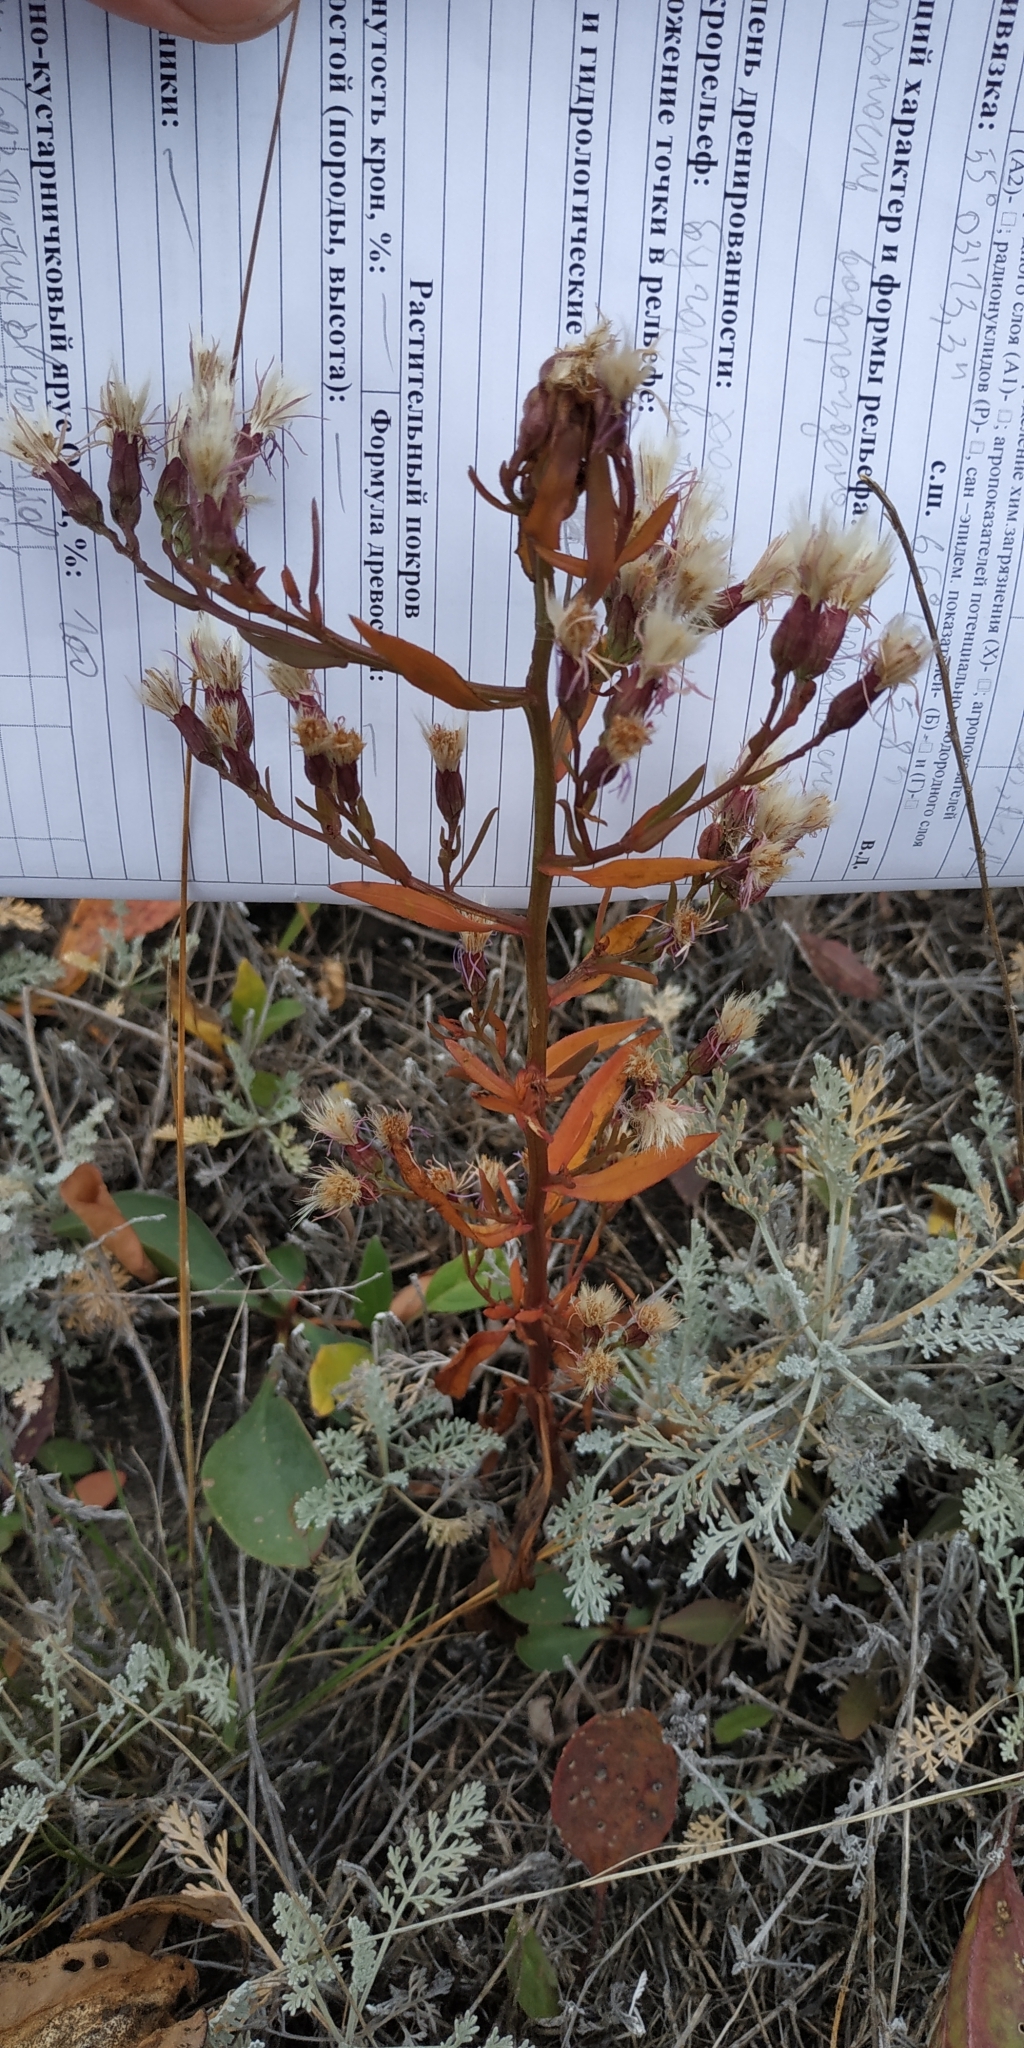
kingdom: Plantae
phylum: Tracheophyta
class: Magnoliopsida
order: Asterales
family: Asteraceae
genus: Tripolium
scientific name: Tripolium pannonicum
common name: Sea aster
